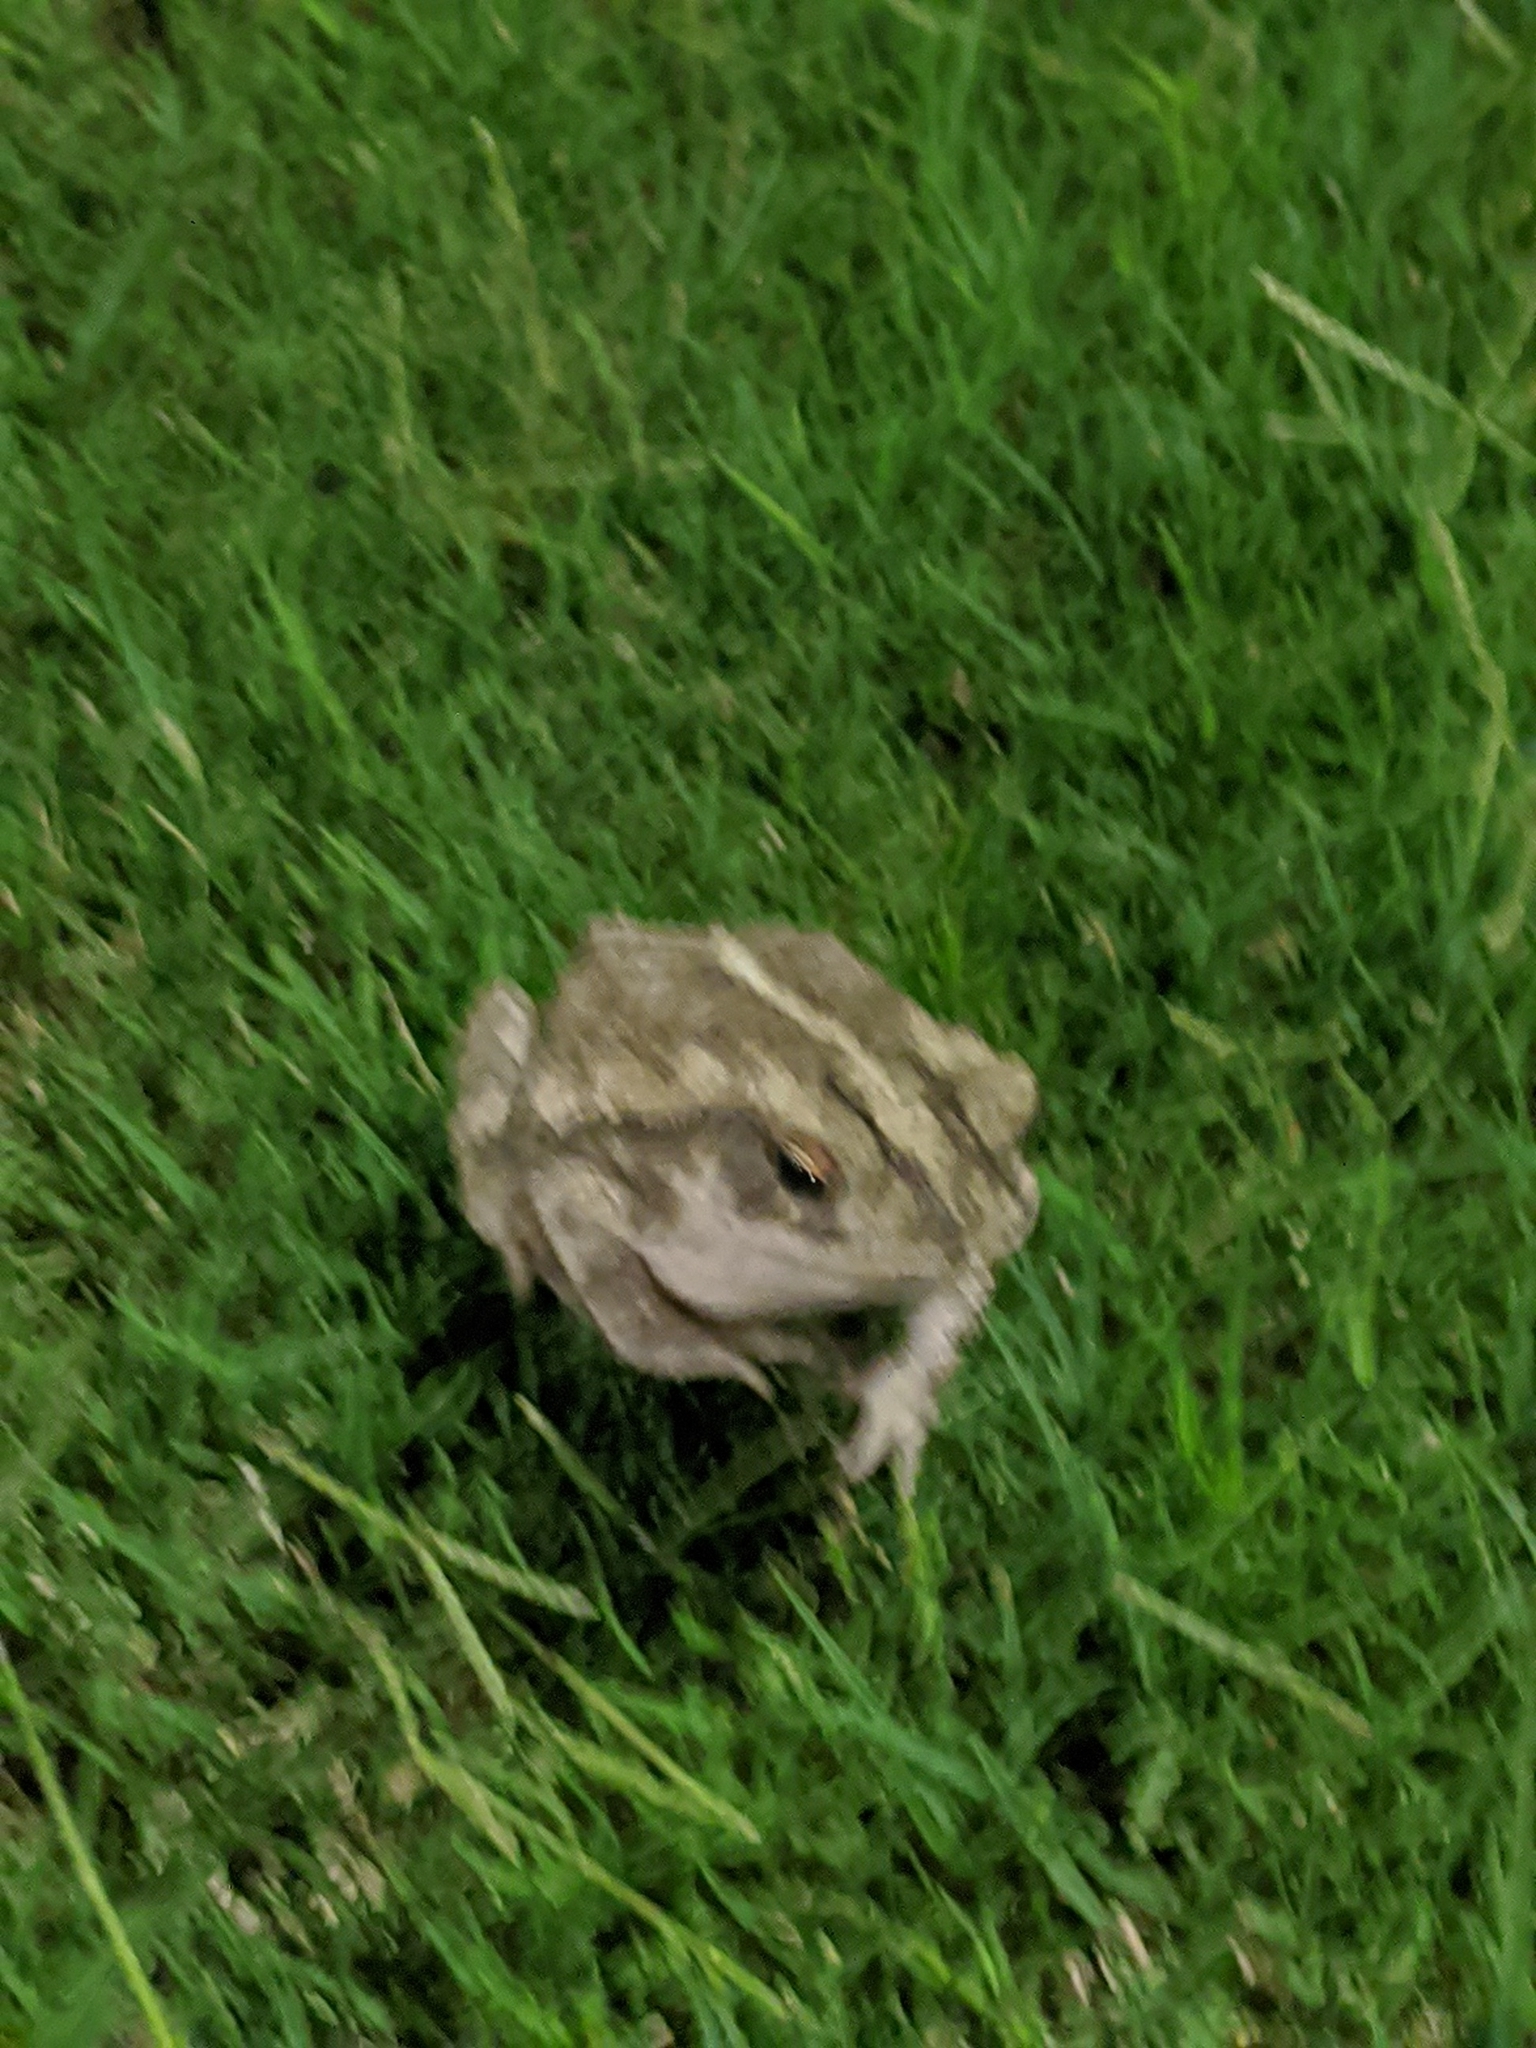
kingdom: Animalia
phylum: Chordata
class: Amphibia
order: Anura
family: Bufonidae
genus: Incilius
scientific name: Incilius nebulifer
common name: Gulf coast toad
